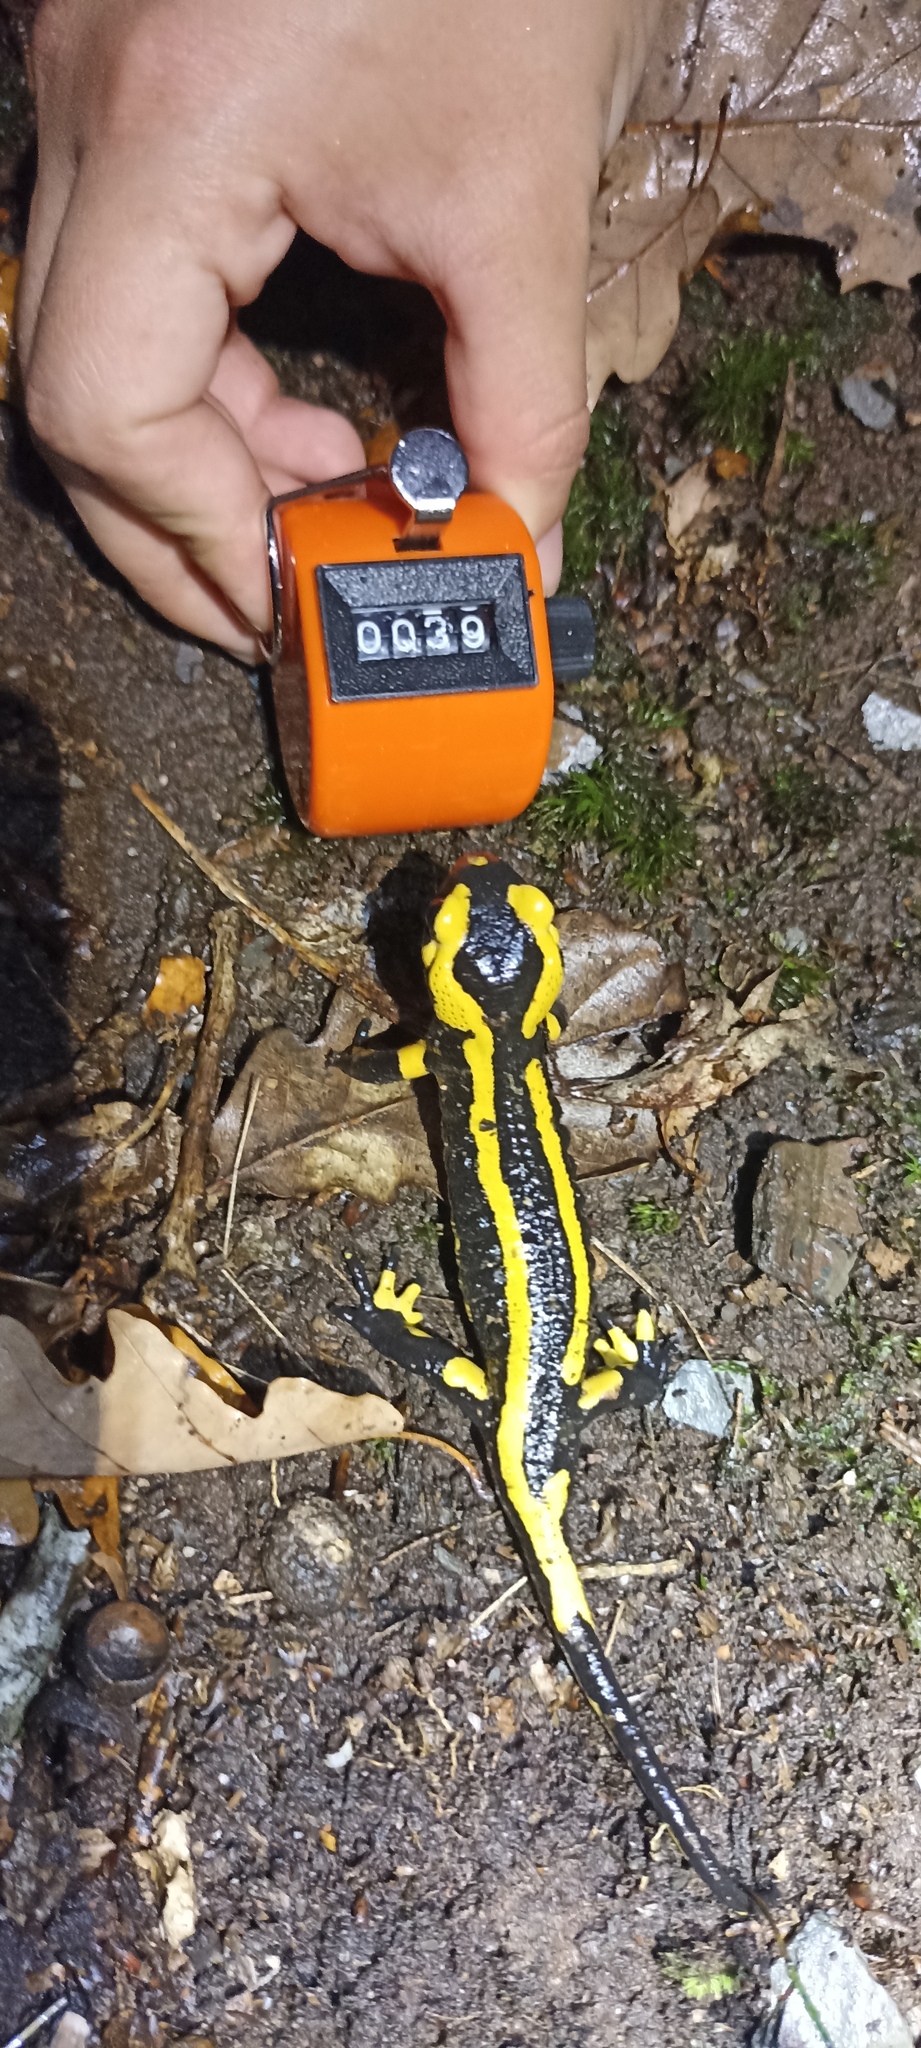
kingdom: Animalia
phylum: Chordata
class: Amphibia
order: Caudata
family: Salamandridae
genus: Salamandra
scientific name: Salamandra salamandra
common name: Fire salamander
